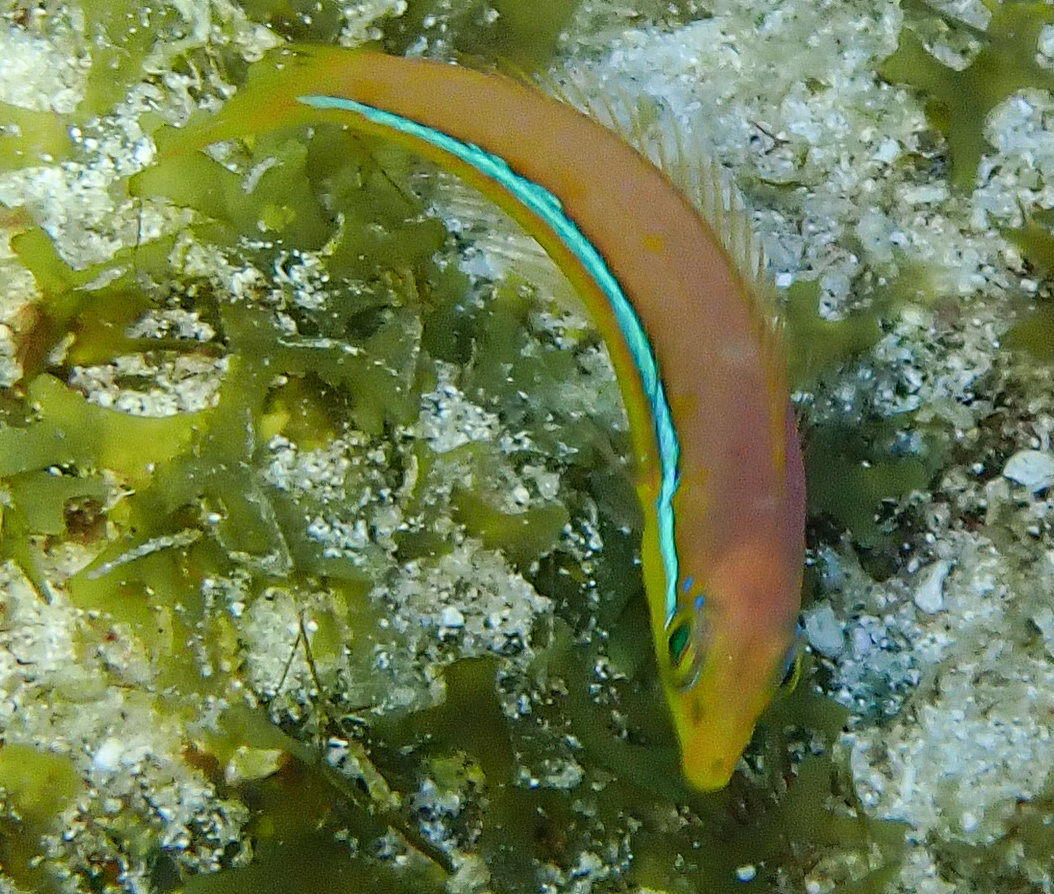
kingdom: Animalia
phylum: Chordata
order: Perciformes
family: Labridae
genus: Halichoeres
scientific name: Halichoeres garnoti
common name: Yellowhead wrasse
